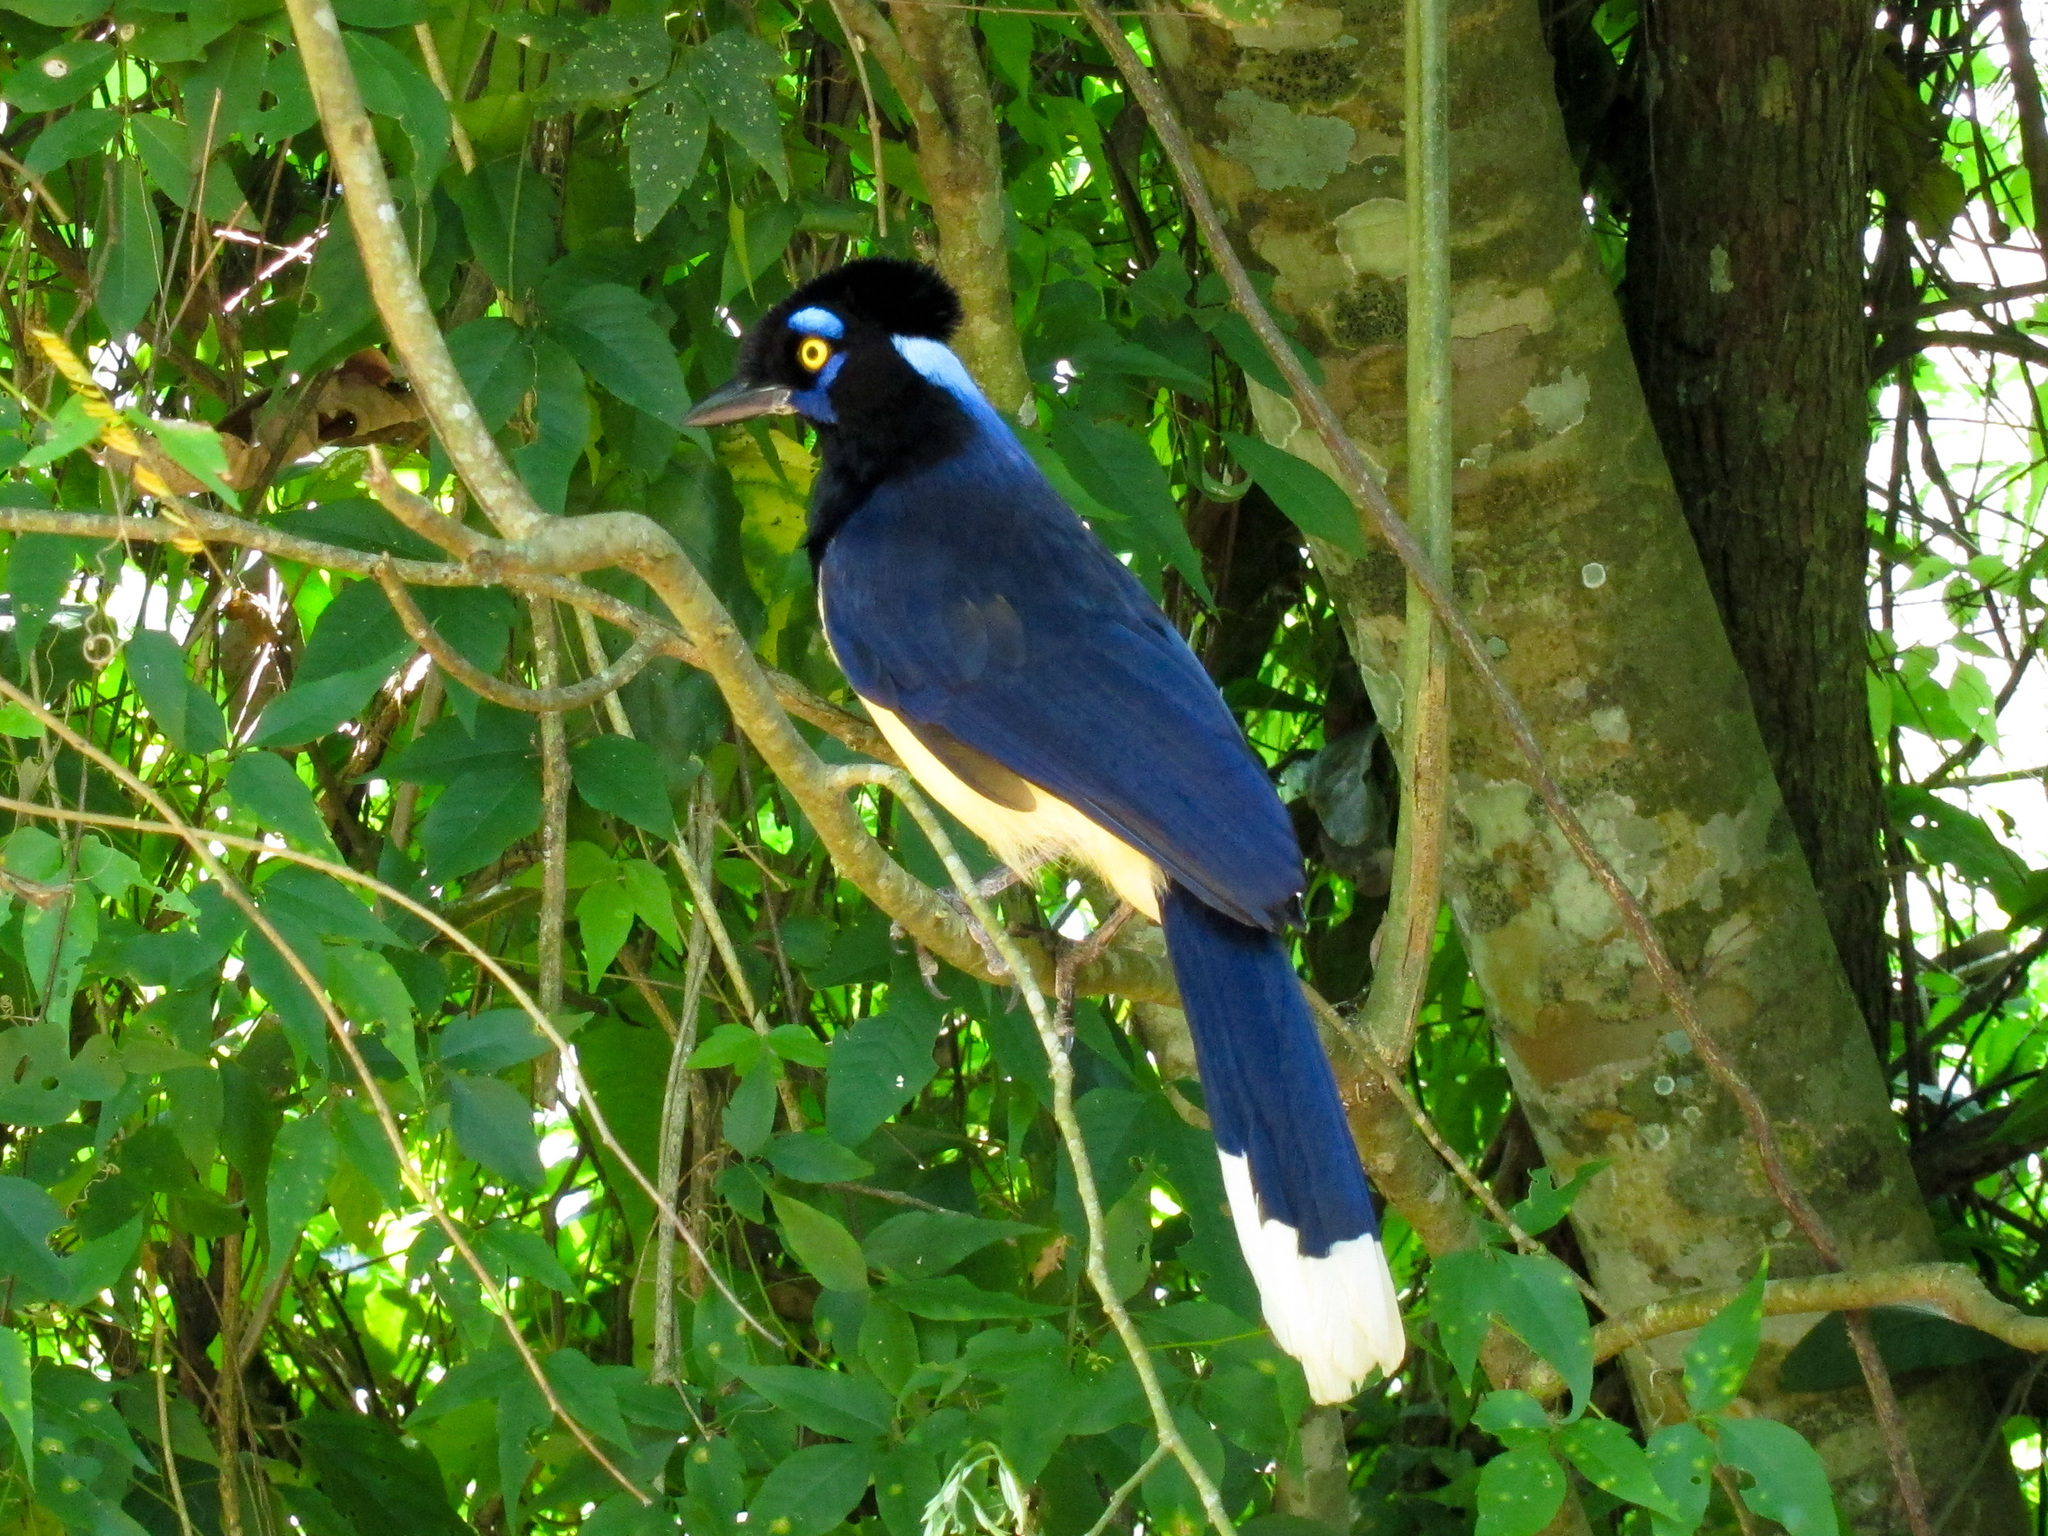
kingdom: Animalia
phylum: Chordata
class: Aves
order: Passeriformes
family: Corvidae
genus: Cyanocorax
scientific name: Cyanocorax chrysops
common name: Plush-crested jay
